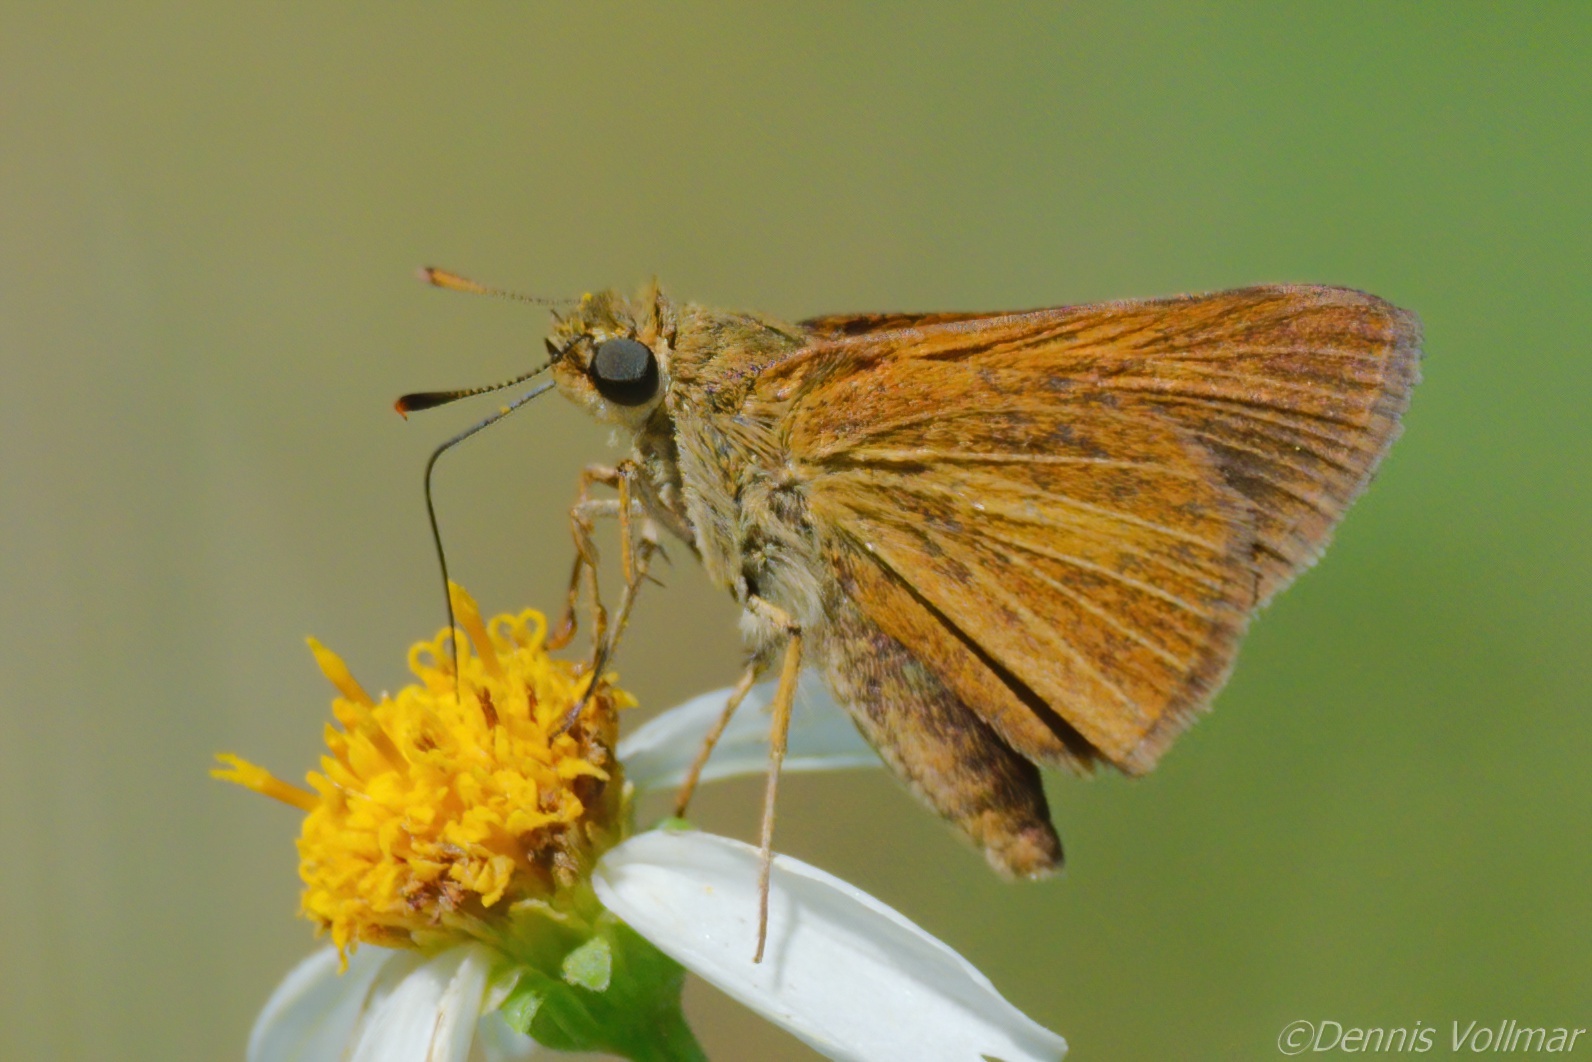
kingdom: Animalia
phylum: Arthropoda
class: Insecta
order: Lepidoptera
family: Hesperiidae
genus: Euphyes
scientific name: Euphyes dion
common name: Dion skipper
